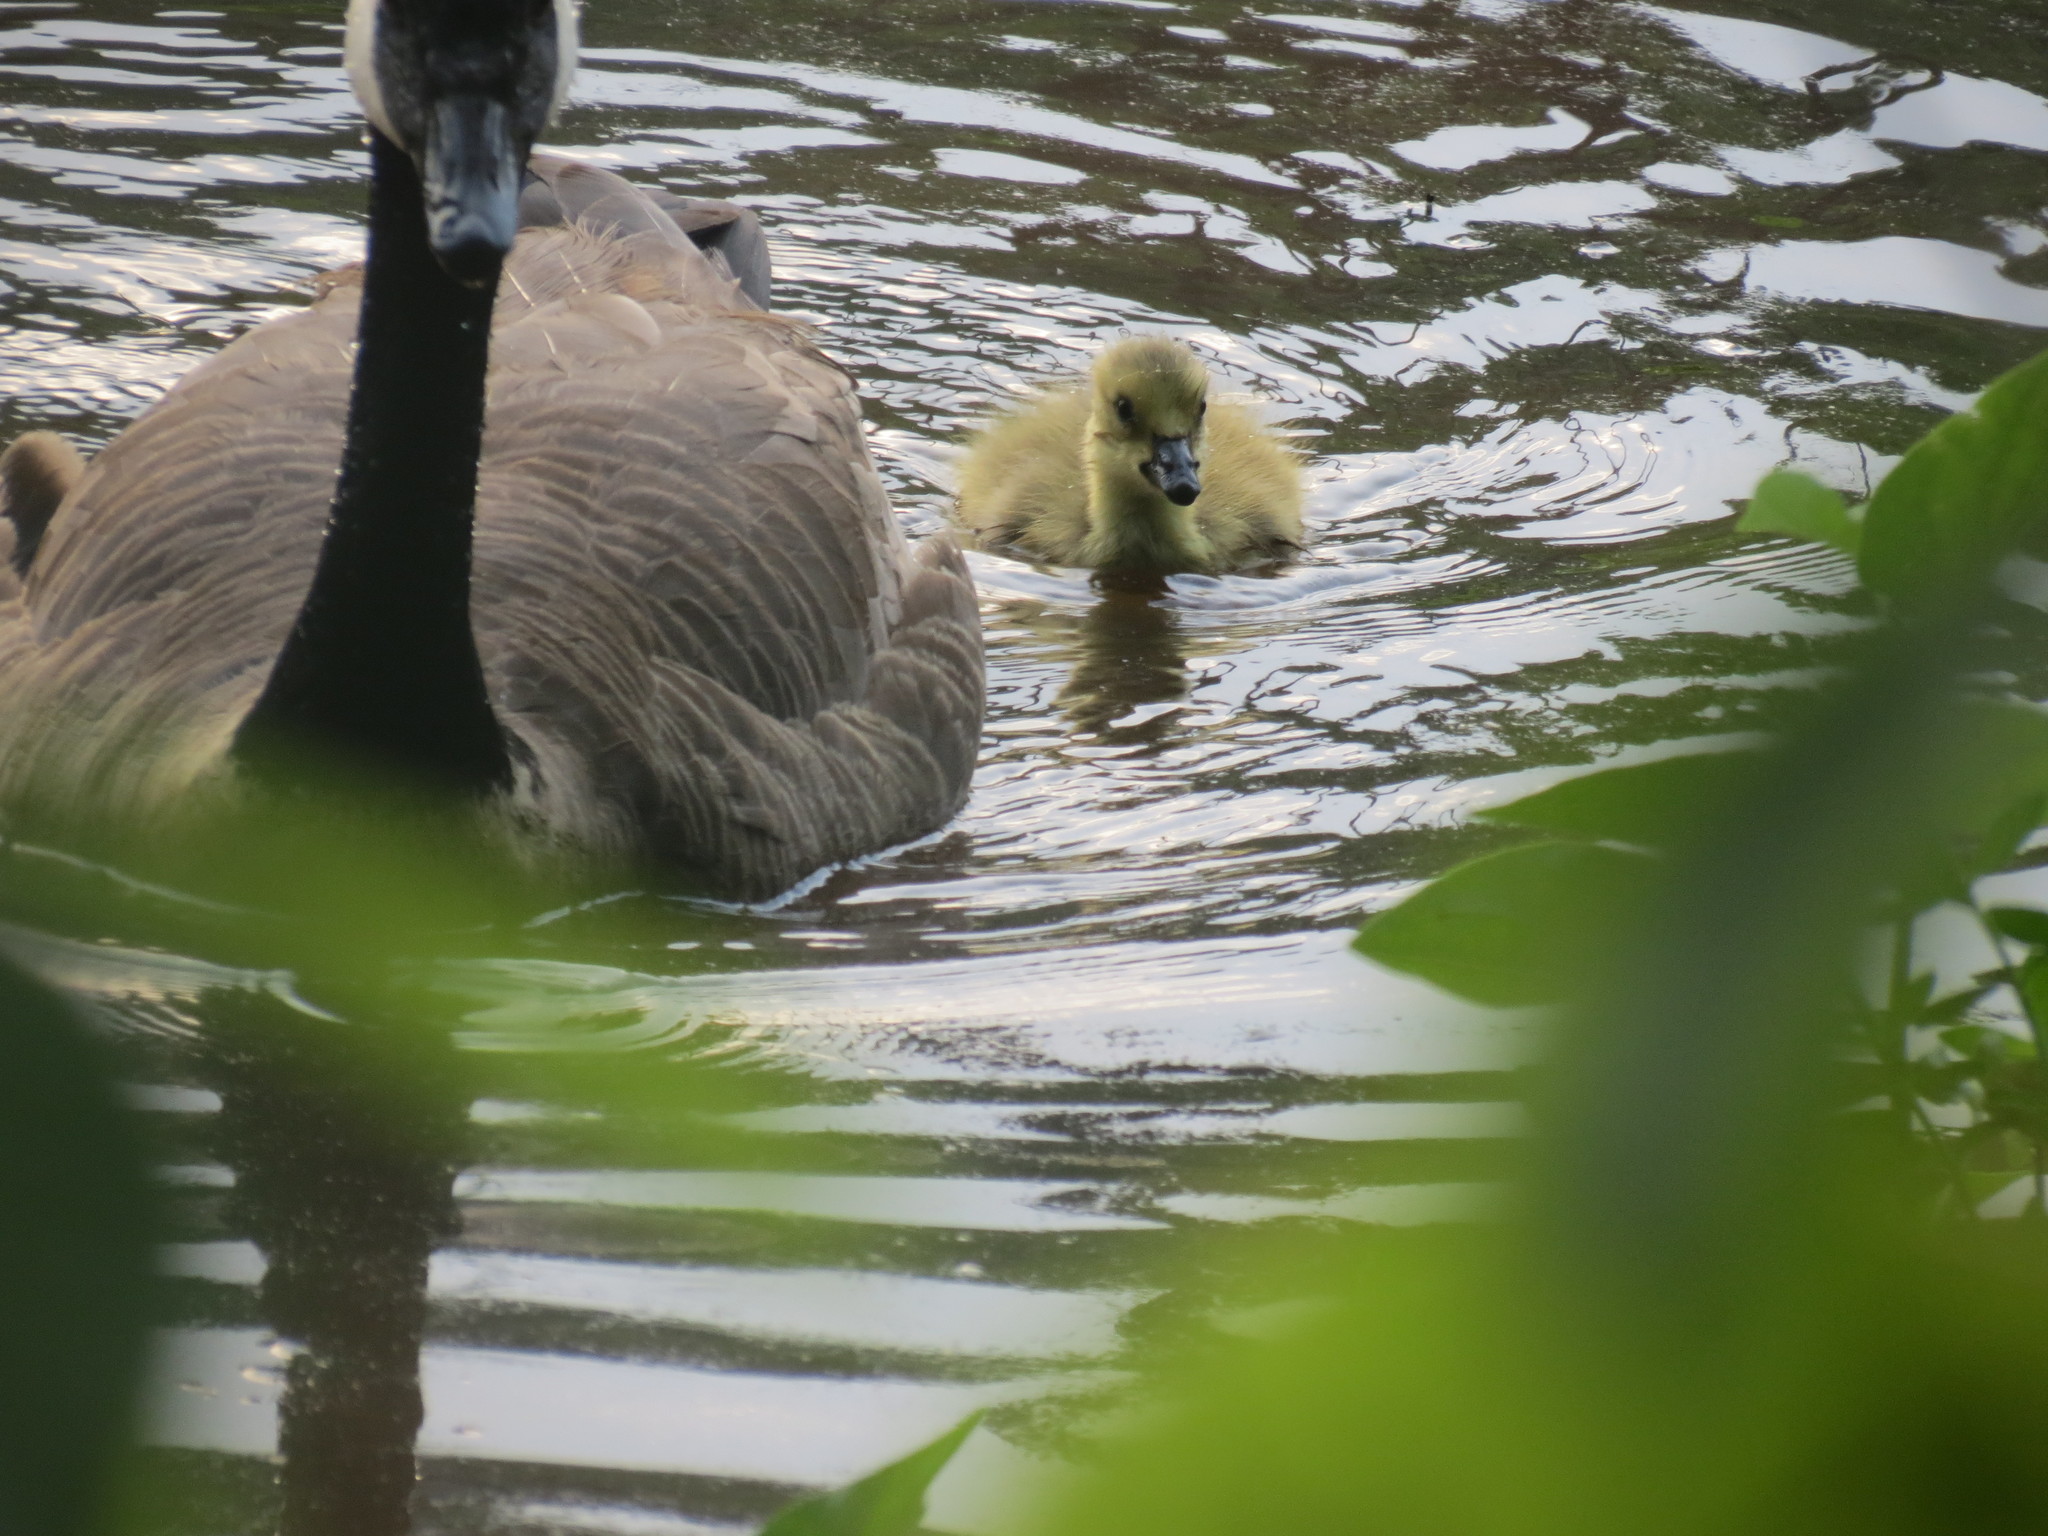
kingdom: Animalia
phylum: Chordata
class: Aves
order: Anseriformes
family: Anatidae
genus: Branta
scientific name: Branta canadensis
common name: Canada goose
